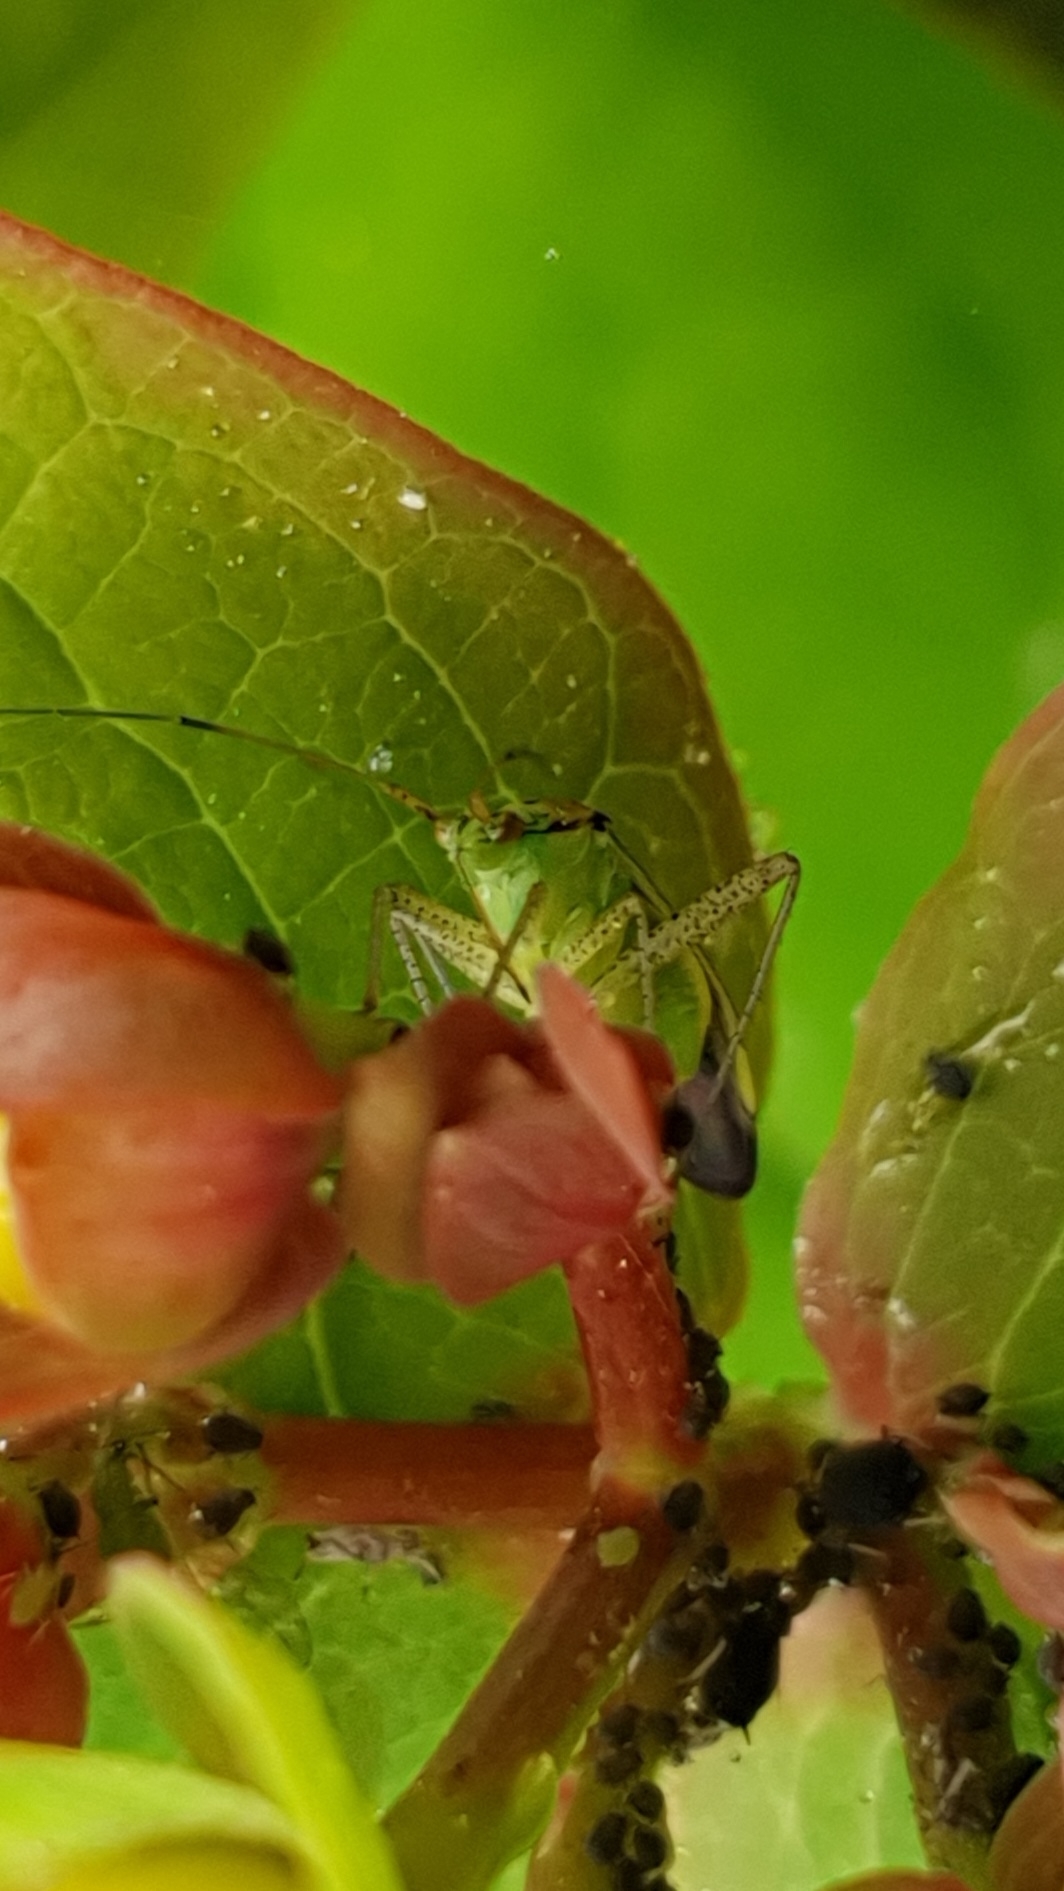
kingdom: Animalia
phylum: Arthropoda
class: Insecta
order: Hemiptera
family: Miridae
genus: Closterotomus
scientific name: Closterotomus trivialis
